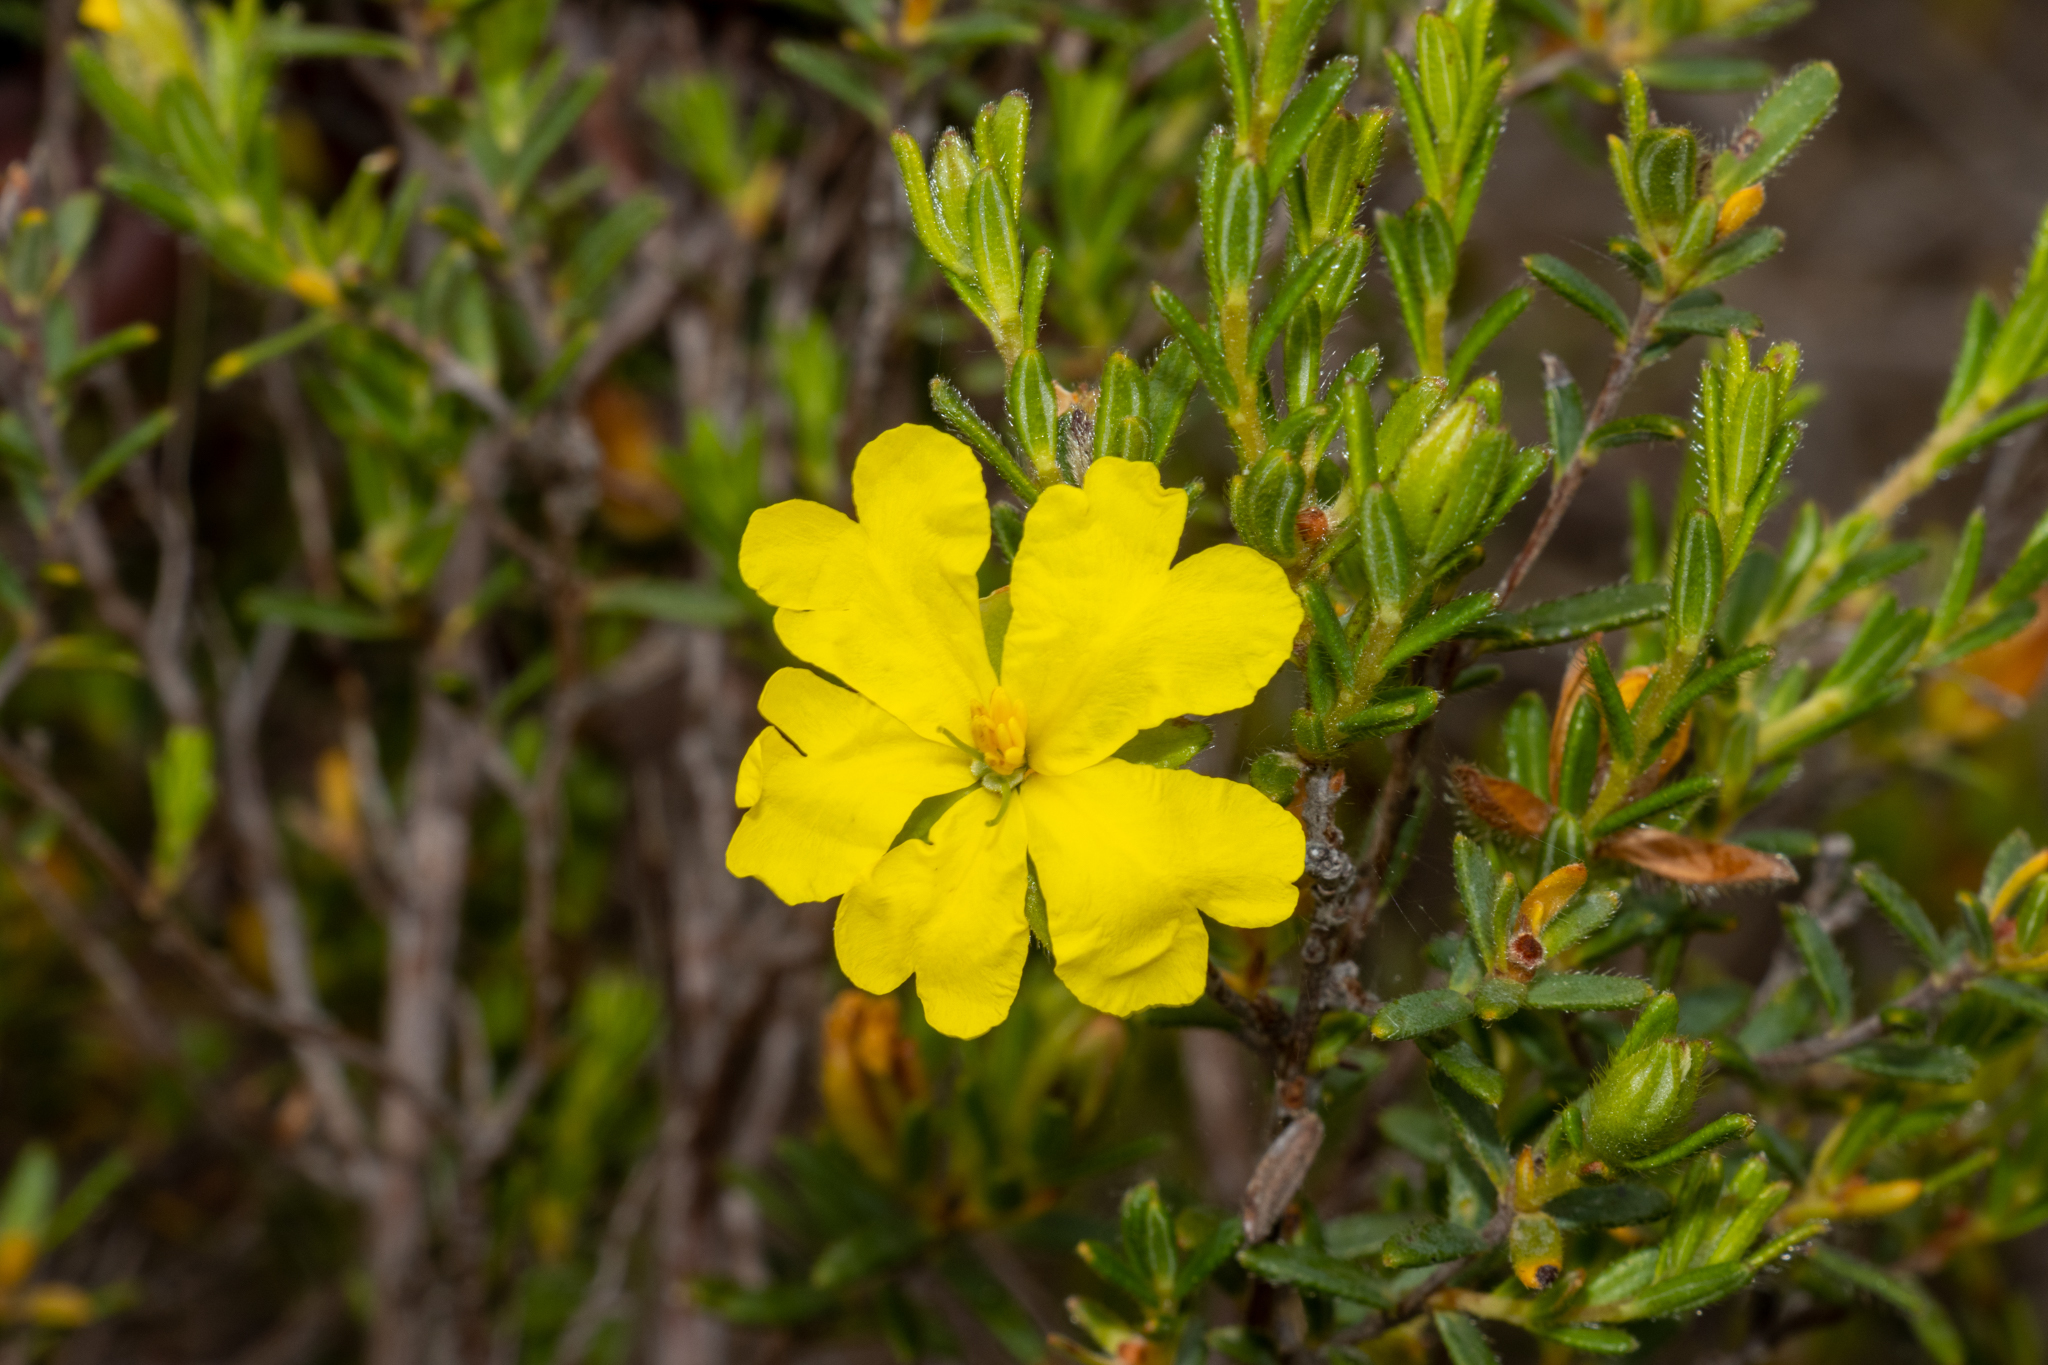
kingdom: Plantae
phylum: Tracheophyta
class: Magnoliopsida
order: Dilleniales
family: Dilleniaceae
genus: Hibbertia
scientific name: Hibbertia riparia
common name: Erect guinea-flower
